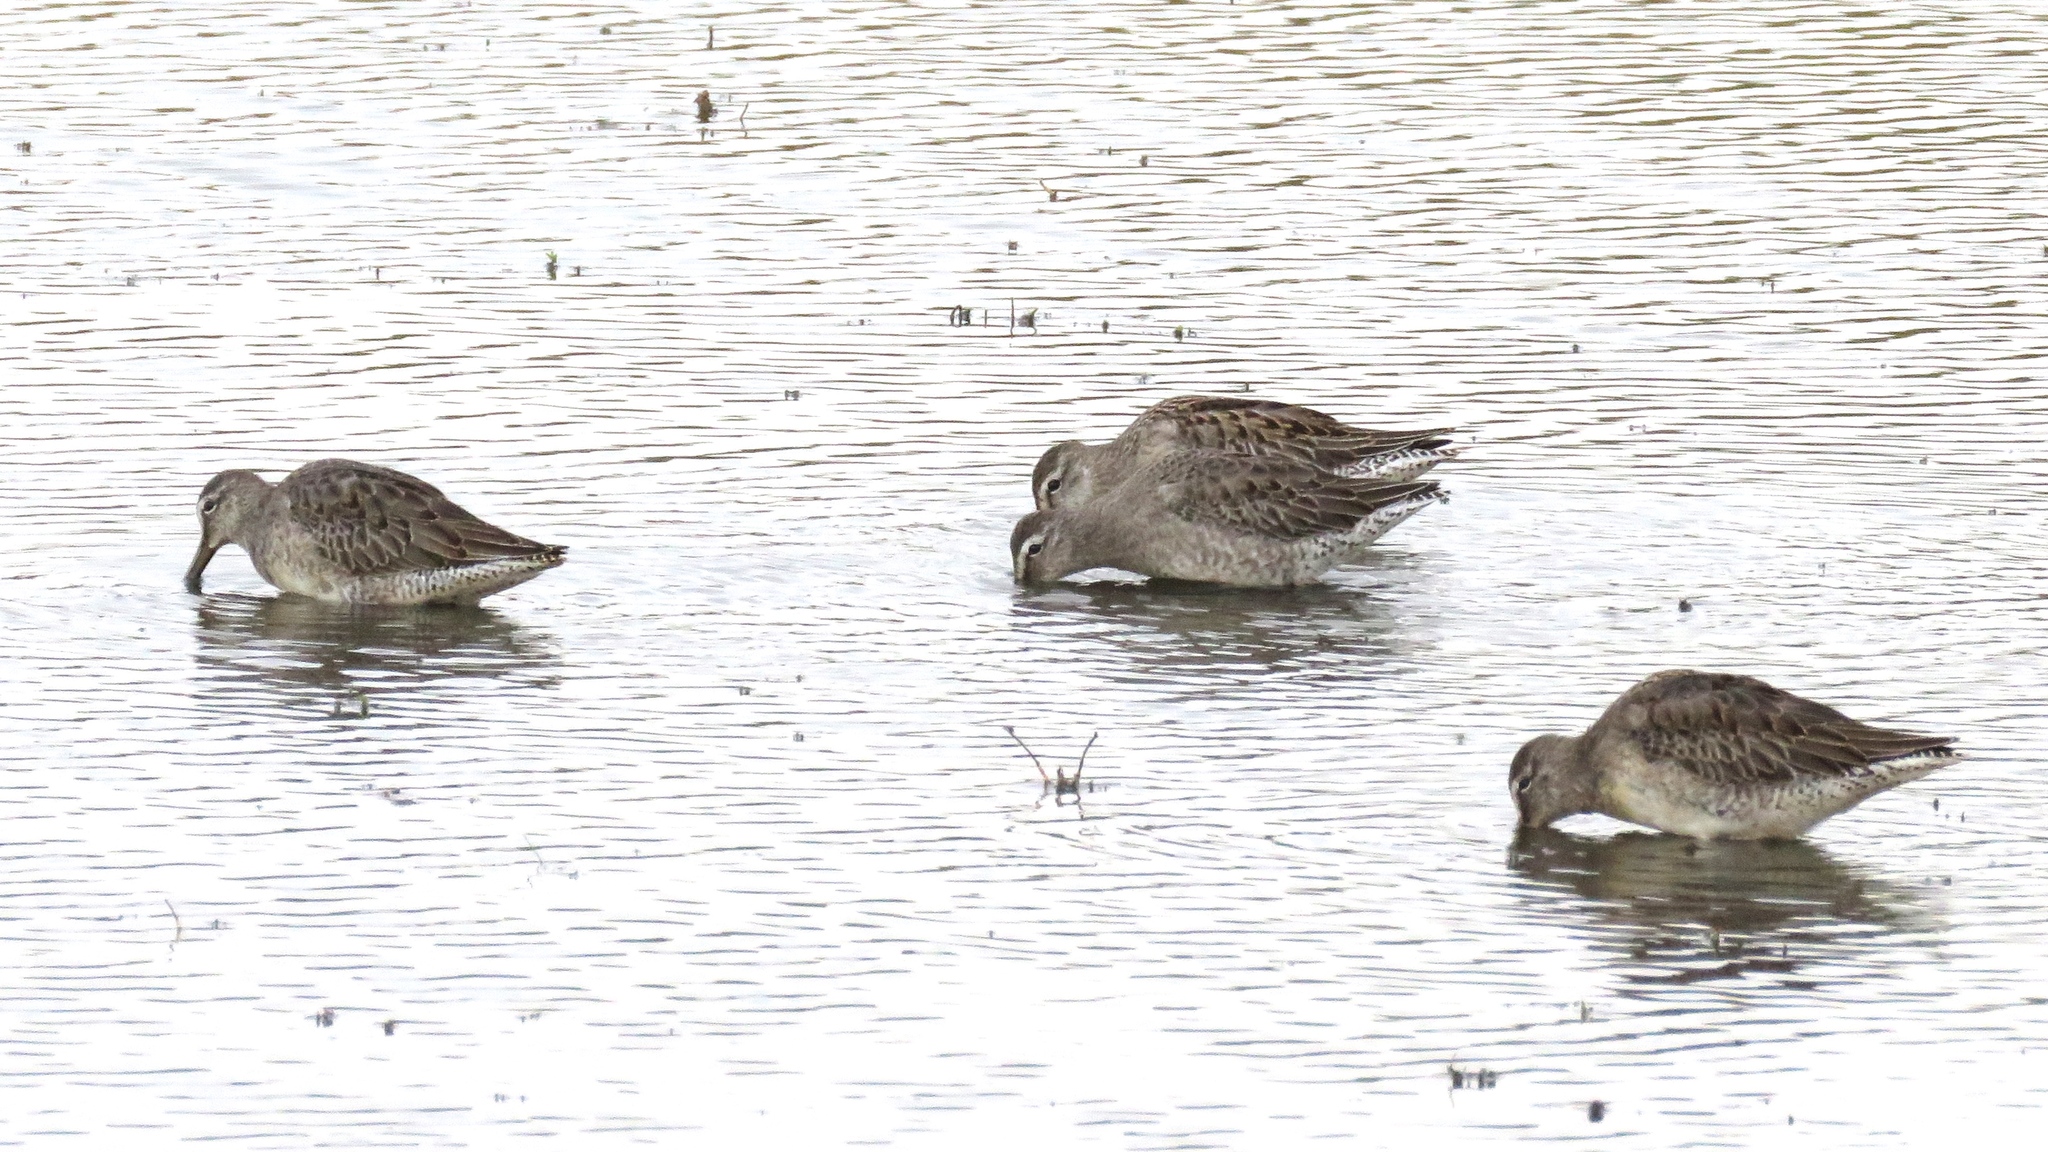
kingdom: Animalia
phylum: Chordata
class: Aves
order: Charadriiformes
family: Scolopacidae
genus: Limnodromus
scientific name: Limnodromus scolopaceus
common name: Long-billed dowitcher
